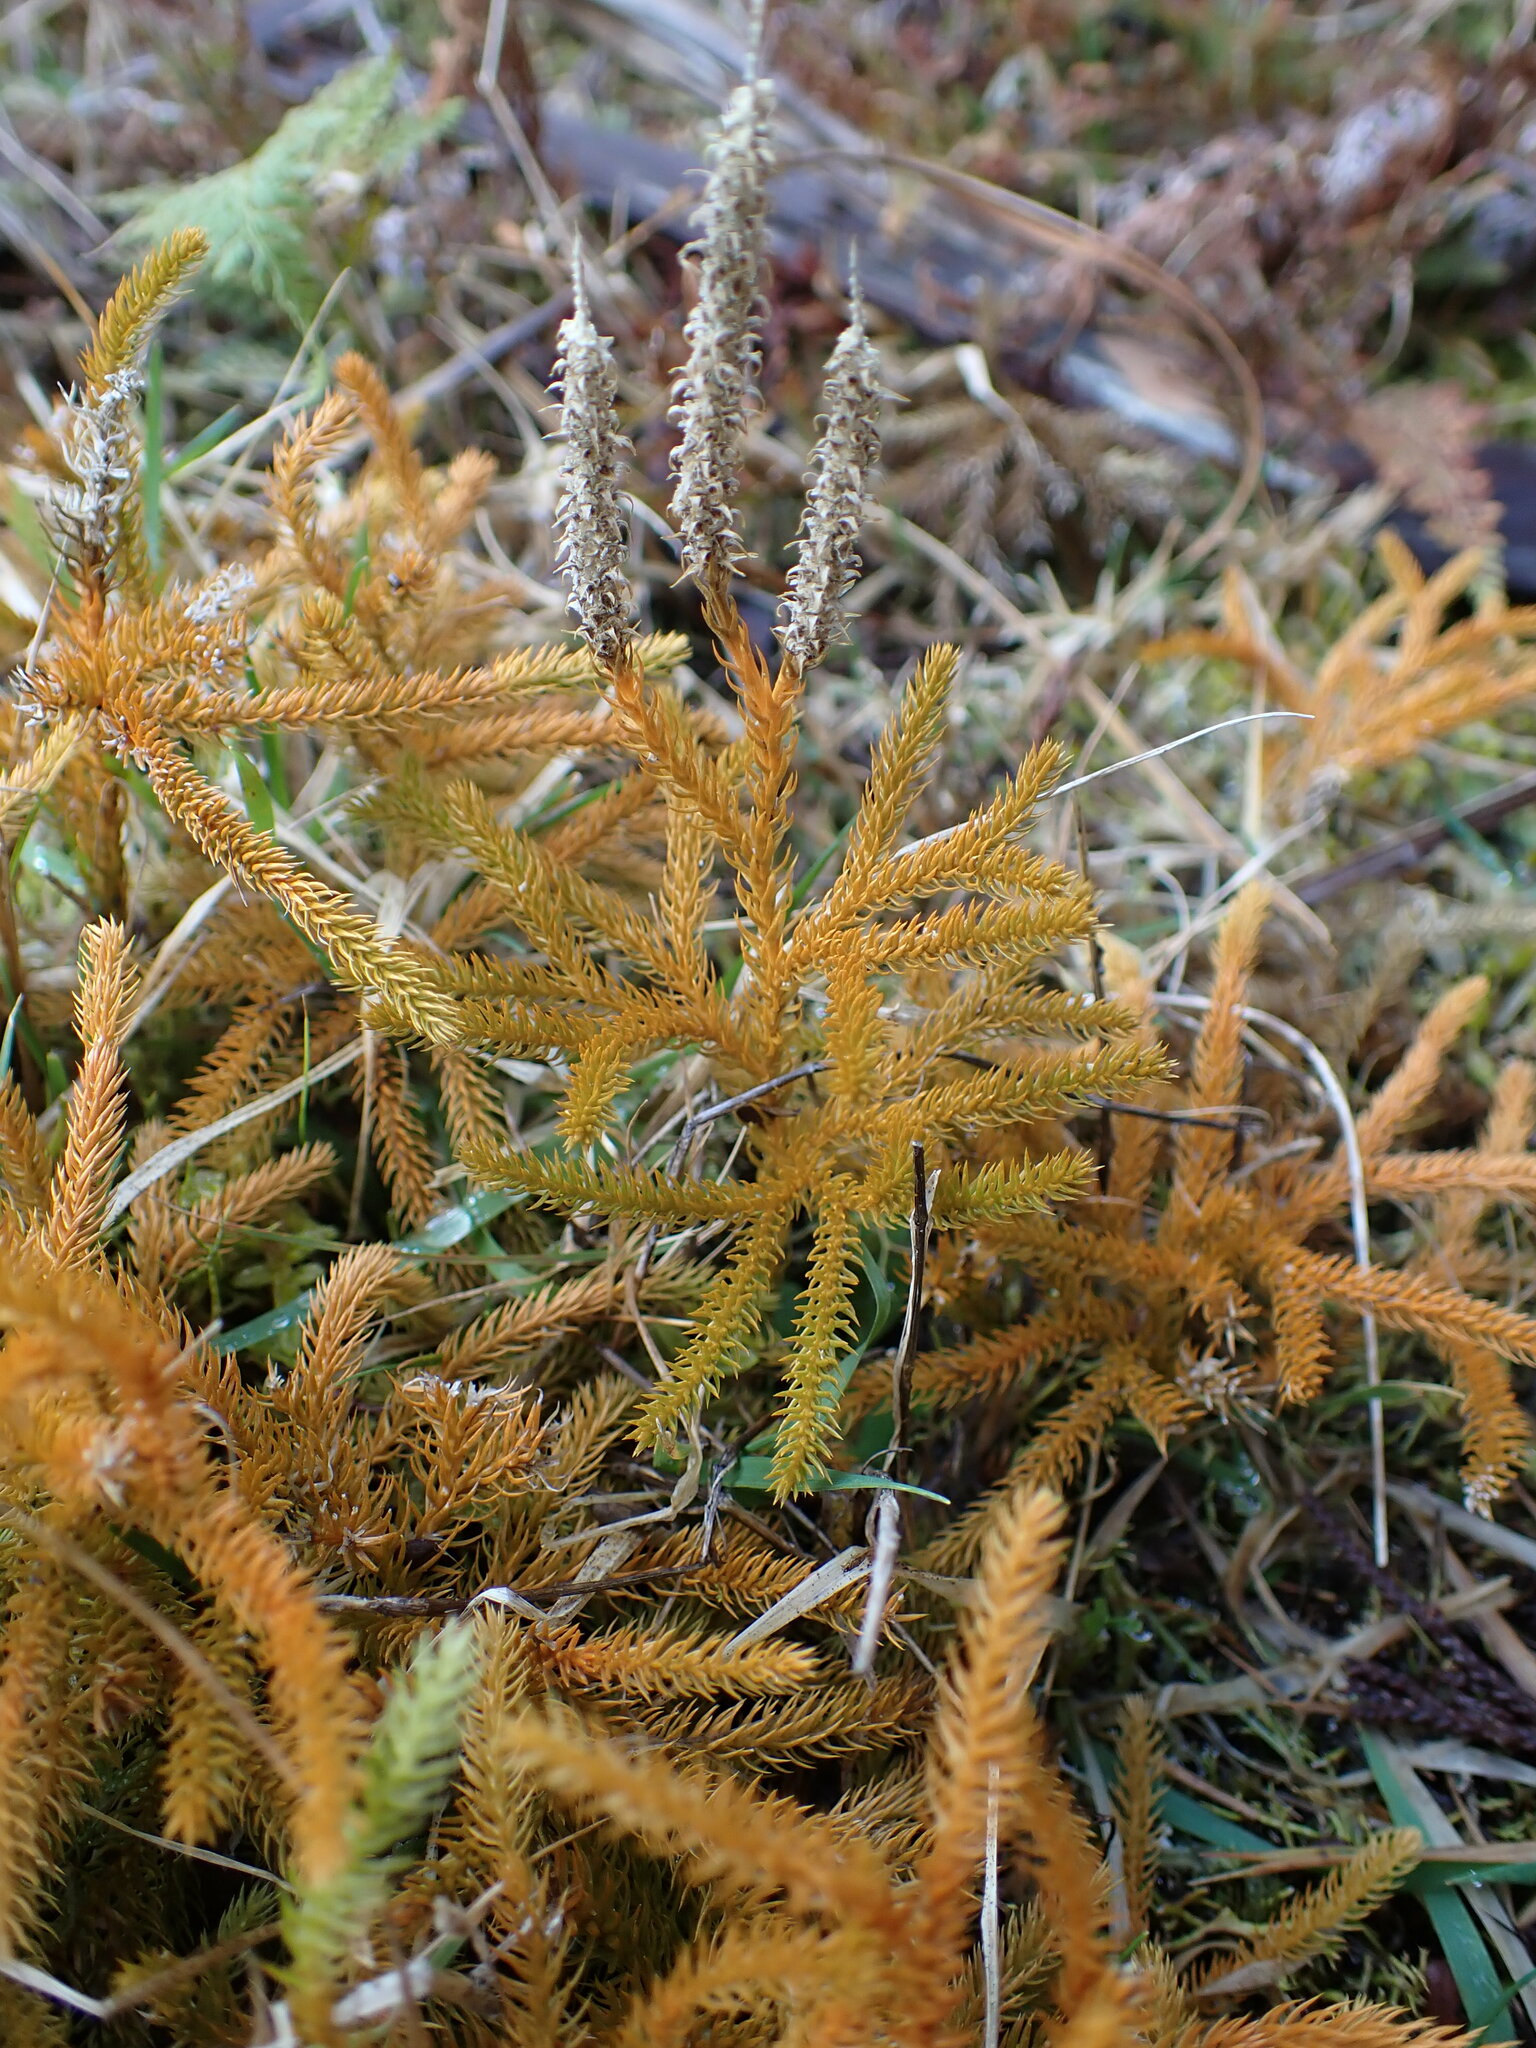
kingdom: Plantae
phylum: Tracheophyta
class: Lycopodiopsida
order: Lycopodiales
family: Lycopodiaceae
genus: Austrolycopodium
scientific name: Austrolycopodium fastigiatum
